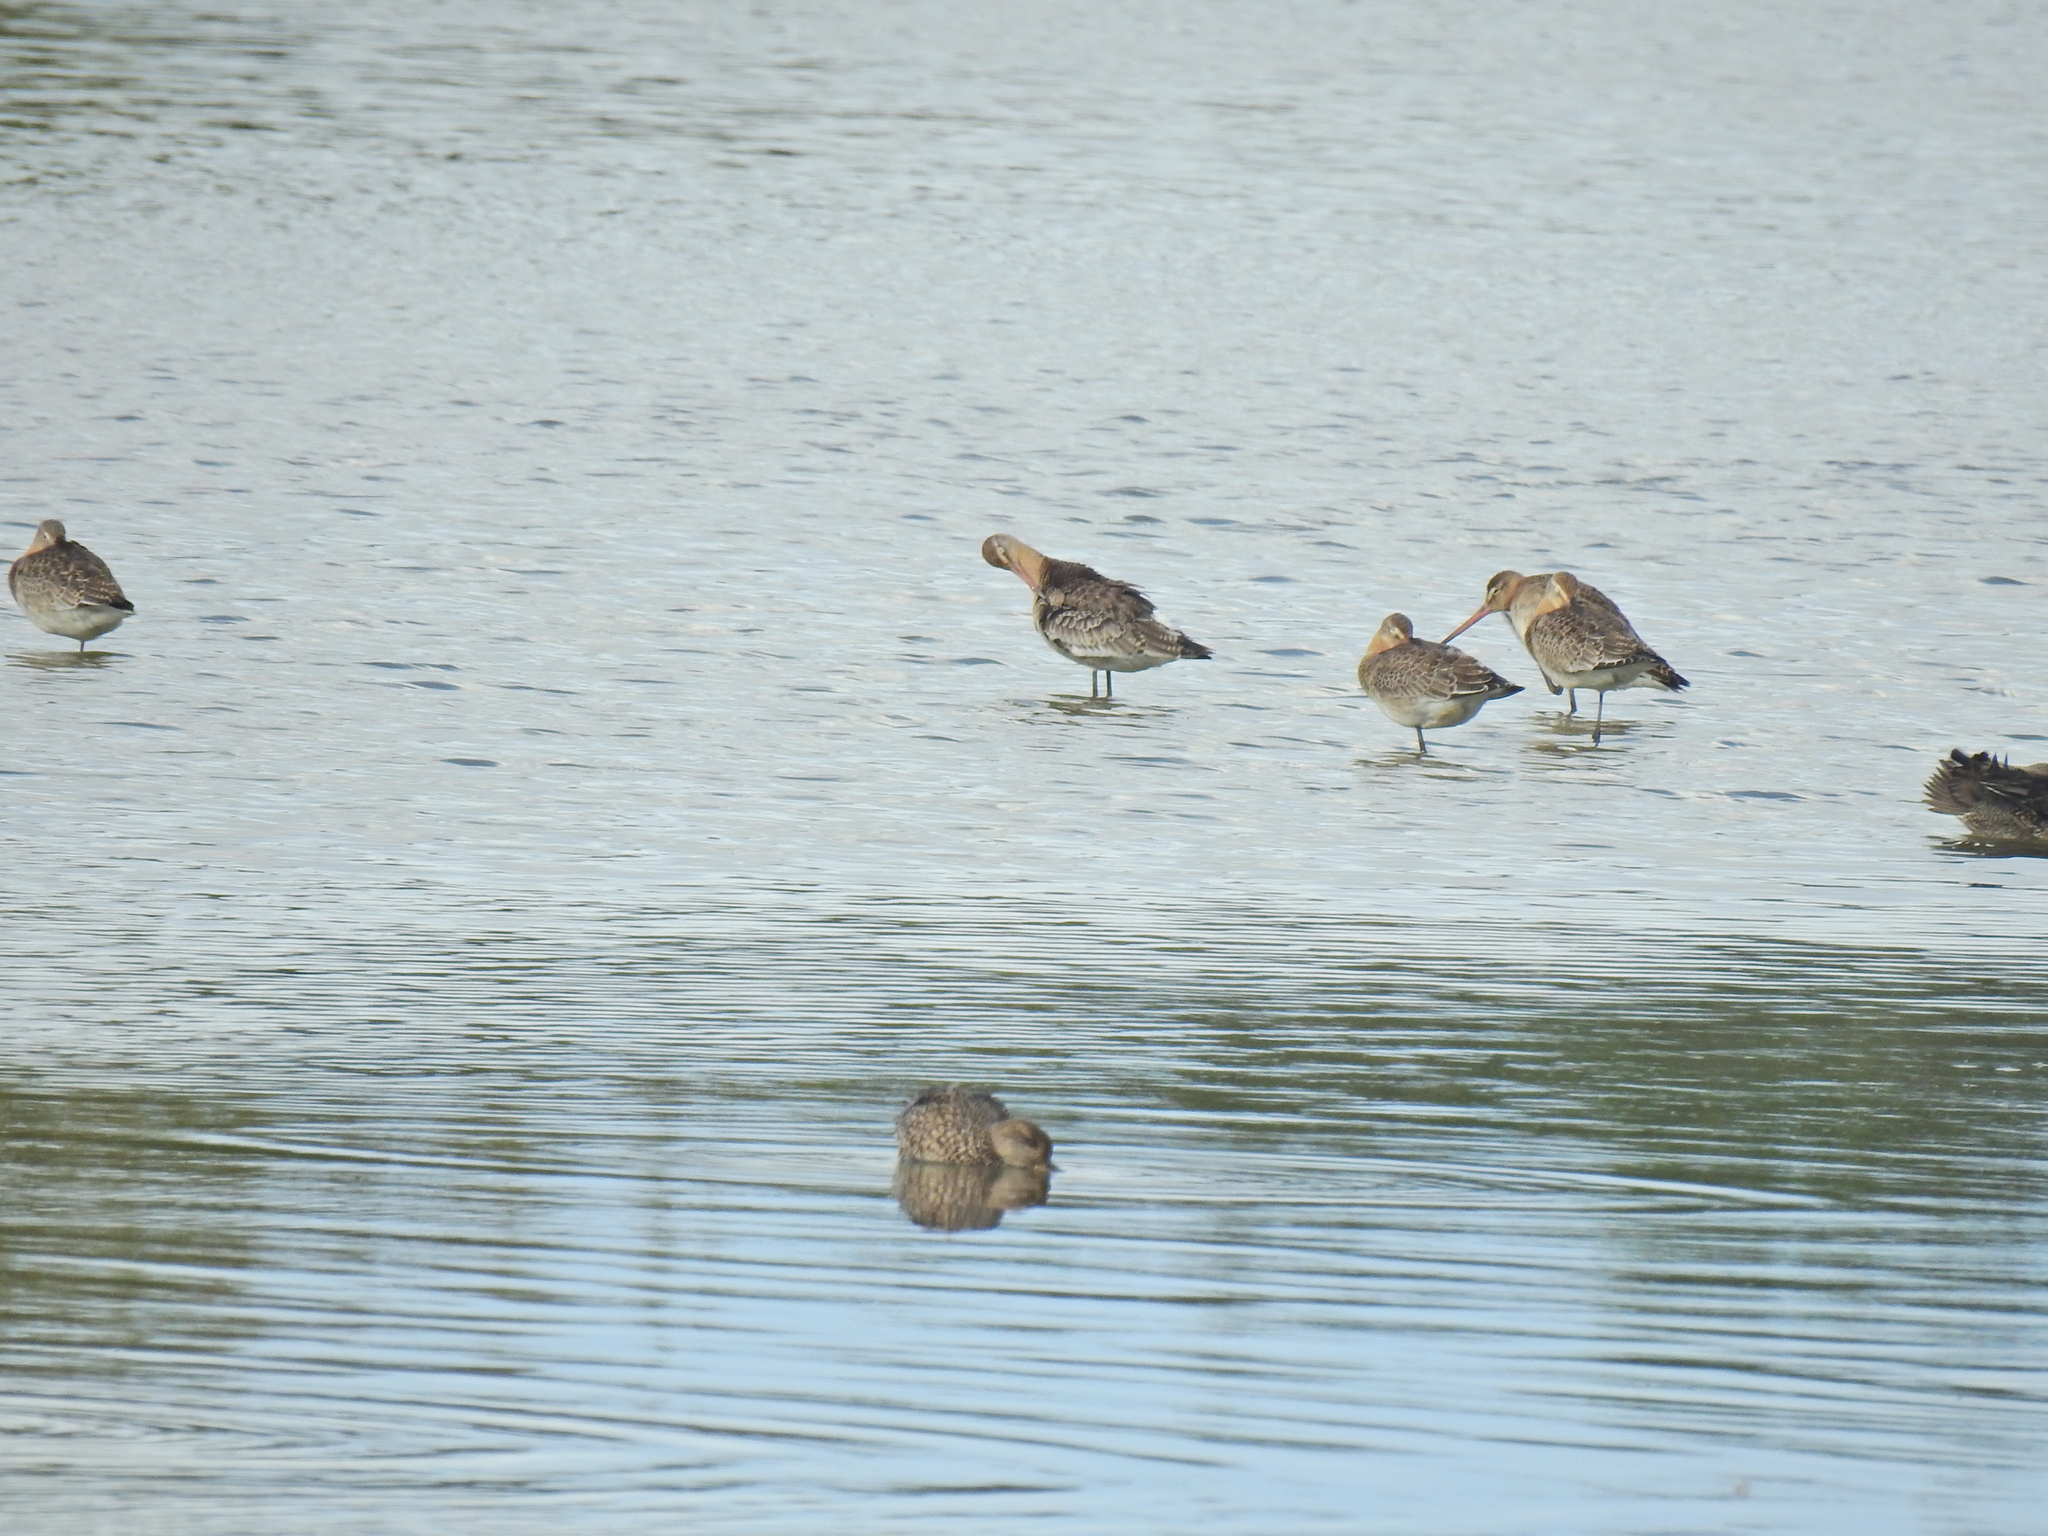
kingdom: Animalia
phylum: Chordata
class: Aves
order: Charadriiformes
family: Scolopacidae
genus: Limosa
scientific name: Limosa limosa
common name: Black-tailed godwit
